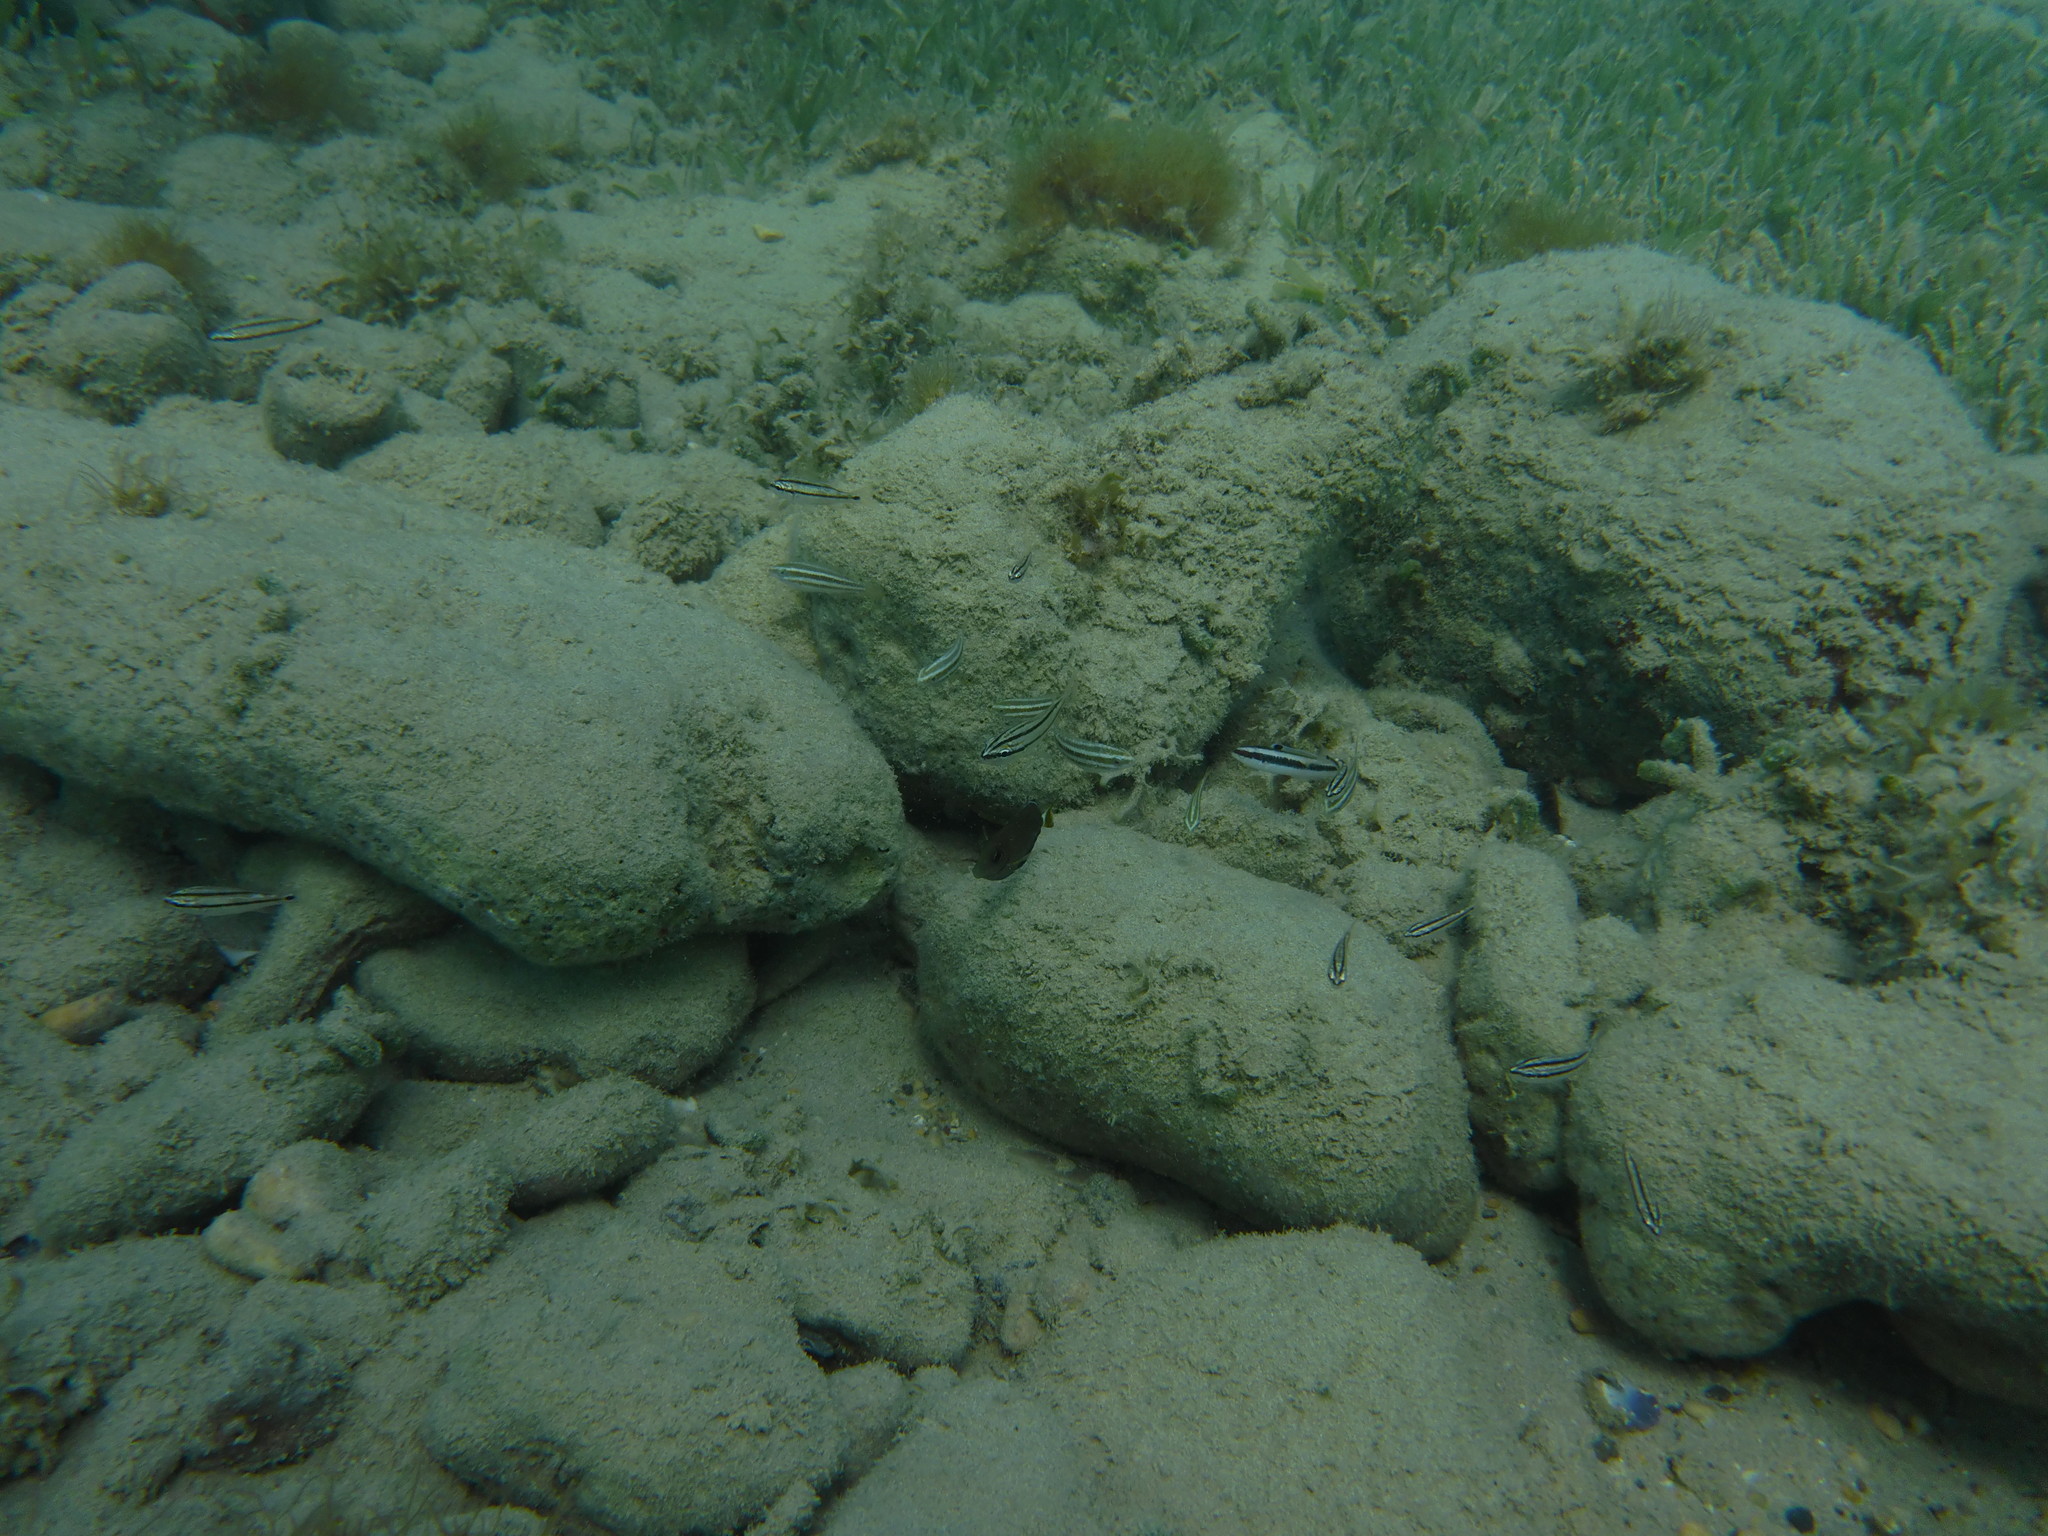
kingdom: Animalia
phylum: Chordata
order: Perciformes
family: Labridae
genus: Thalassoma
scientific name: Thalassoma bifasciatum
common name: Bluehead wrasse
